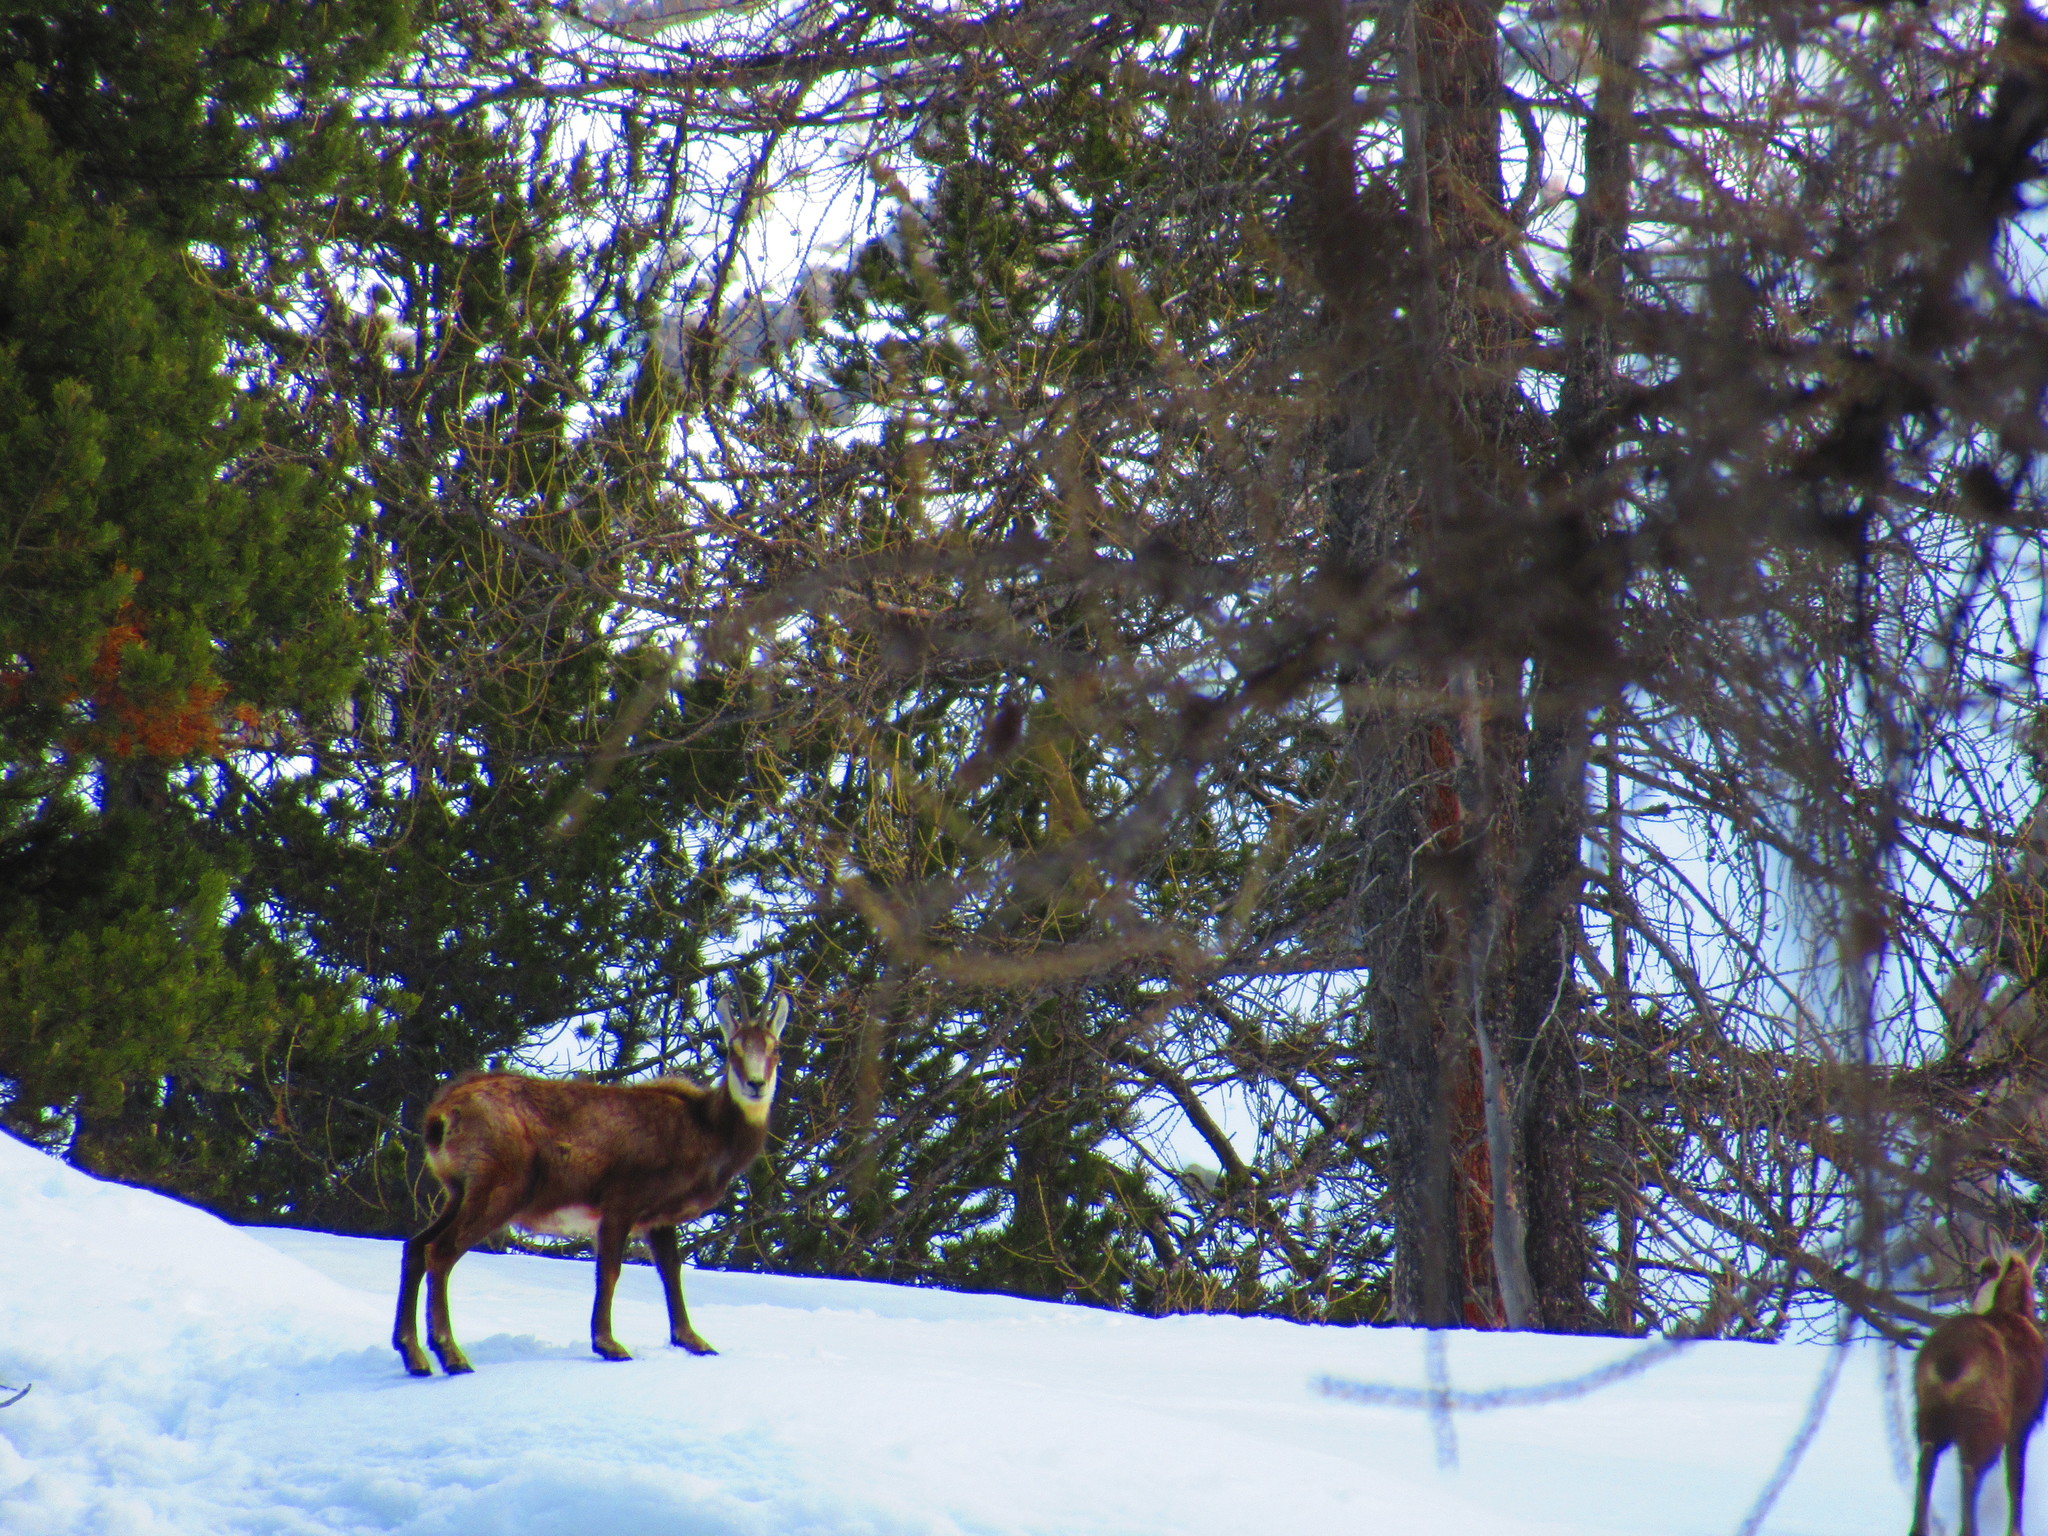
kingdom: Animalia
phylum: Chordata
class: Mammalia
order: Artiodactyla
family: Bovidae
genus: Rupicapra
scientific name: Rupicapra rupicapra
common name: Chamois
